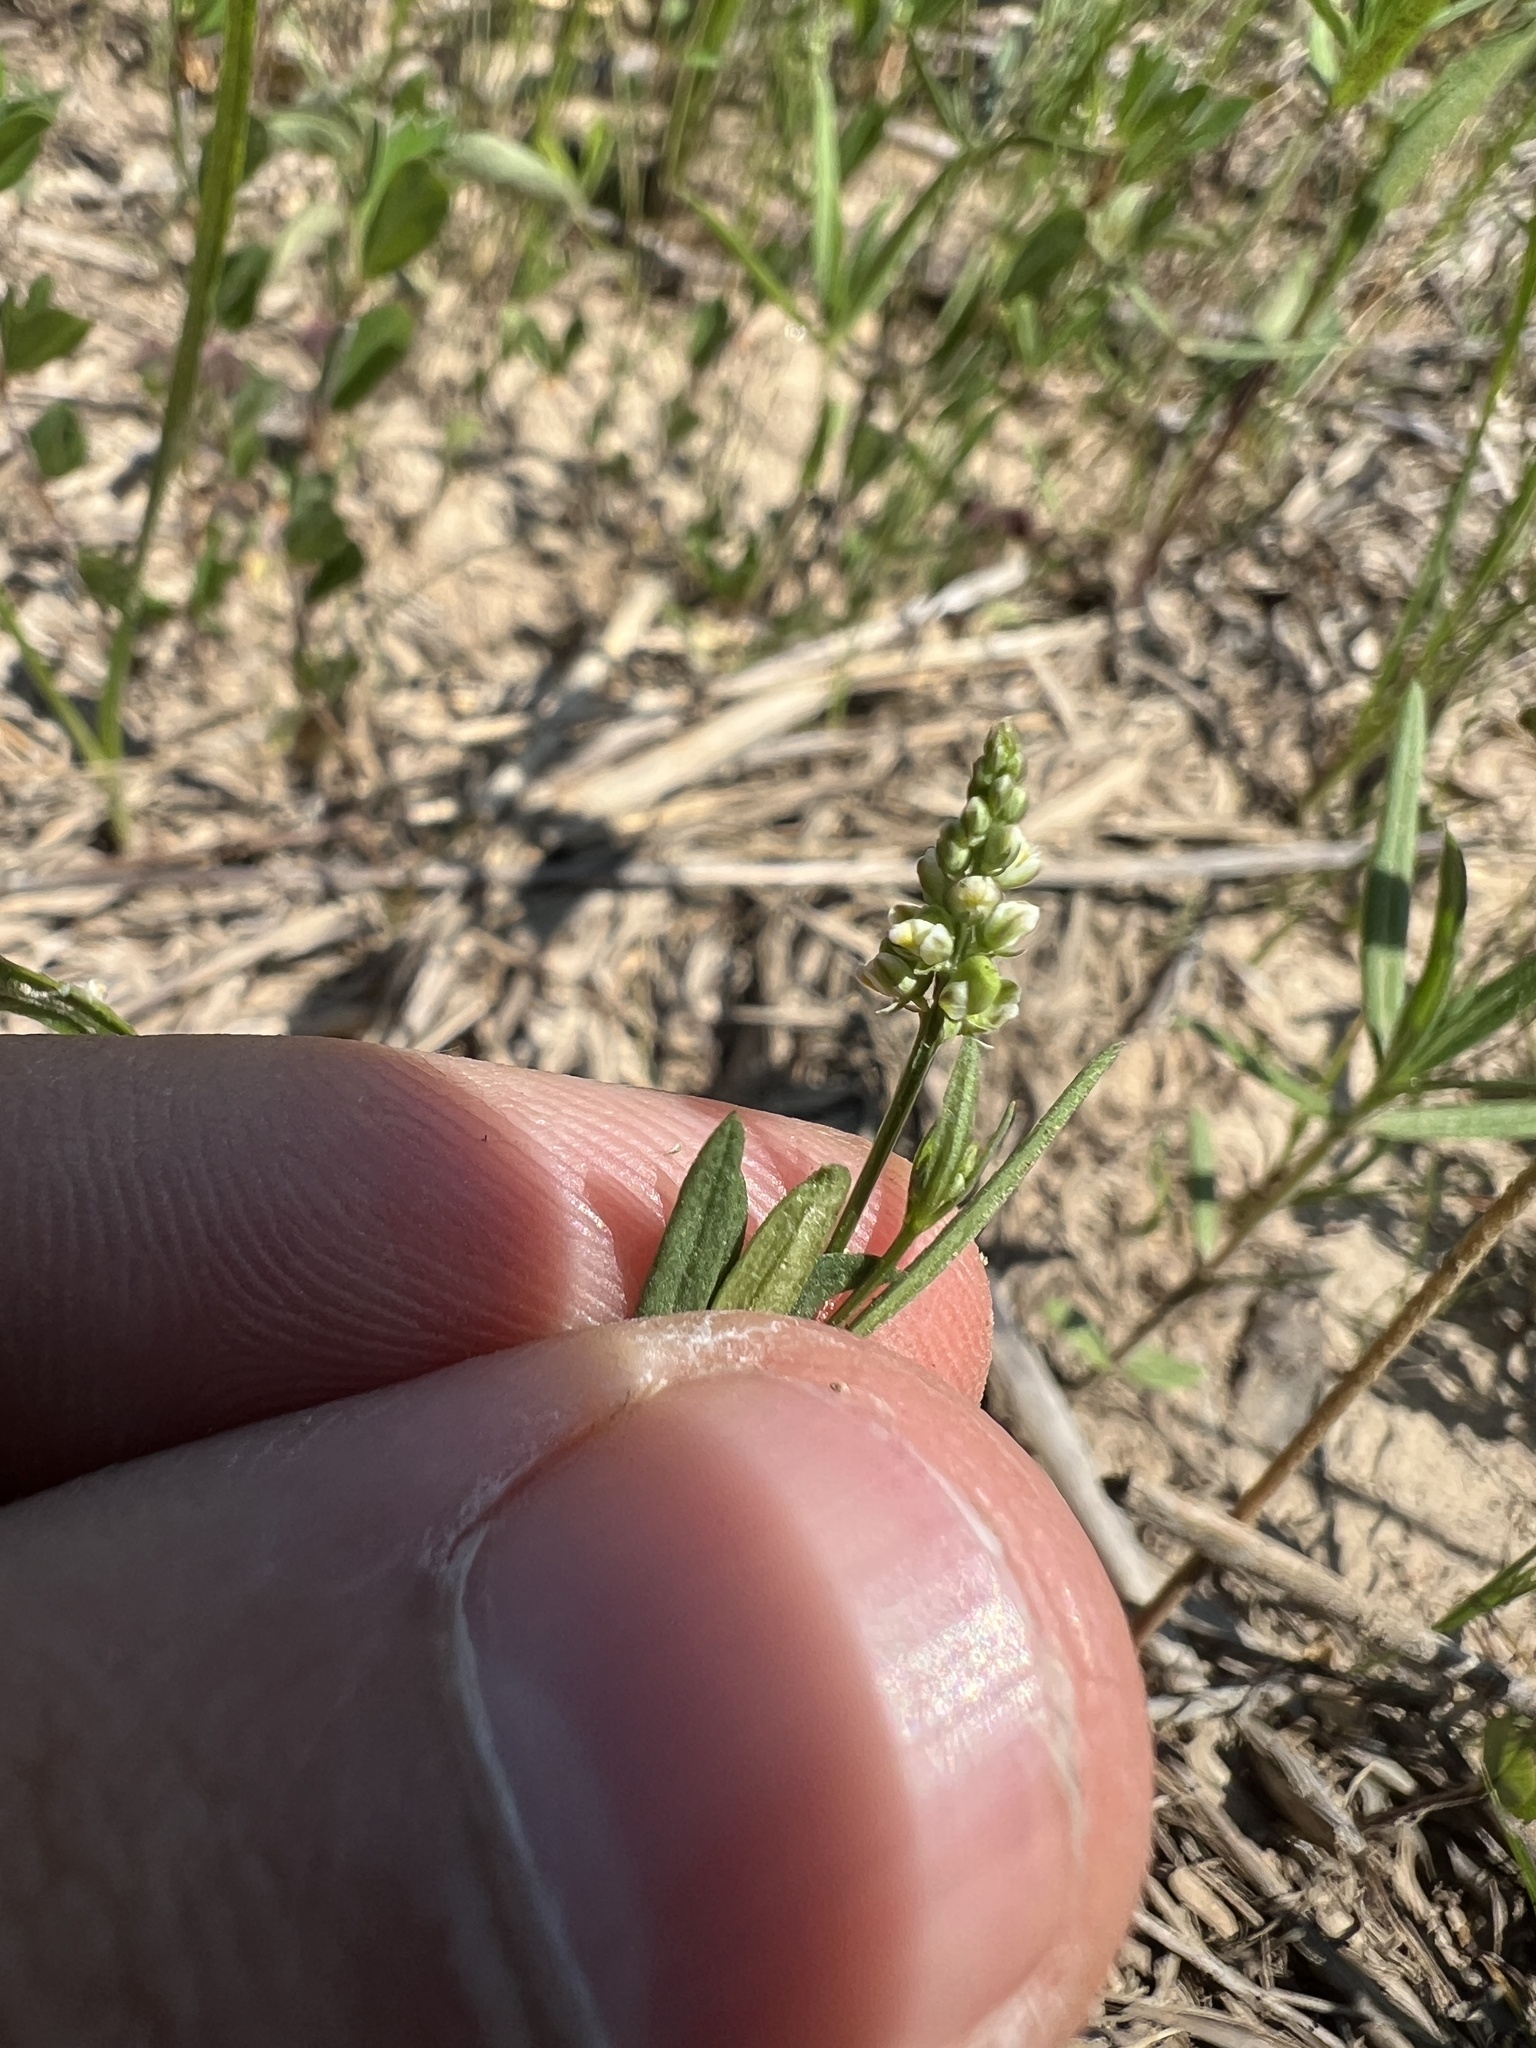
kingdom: Plantae
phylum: Tracheophyta
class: Magnoliopsida
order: Fabales
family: Polygalaceae
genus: Polygala
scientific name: Polygala verticillata
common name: Whorl milkwort
